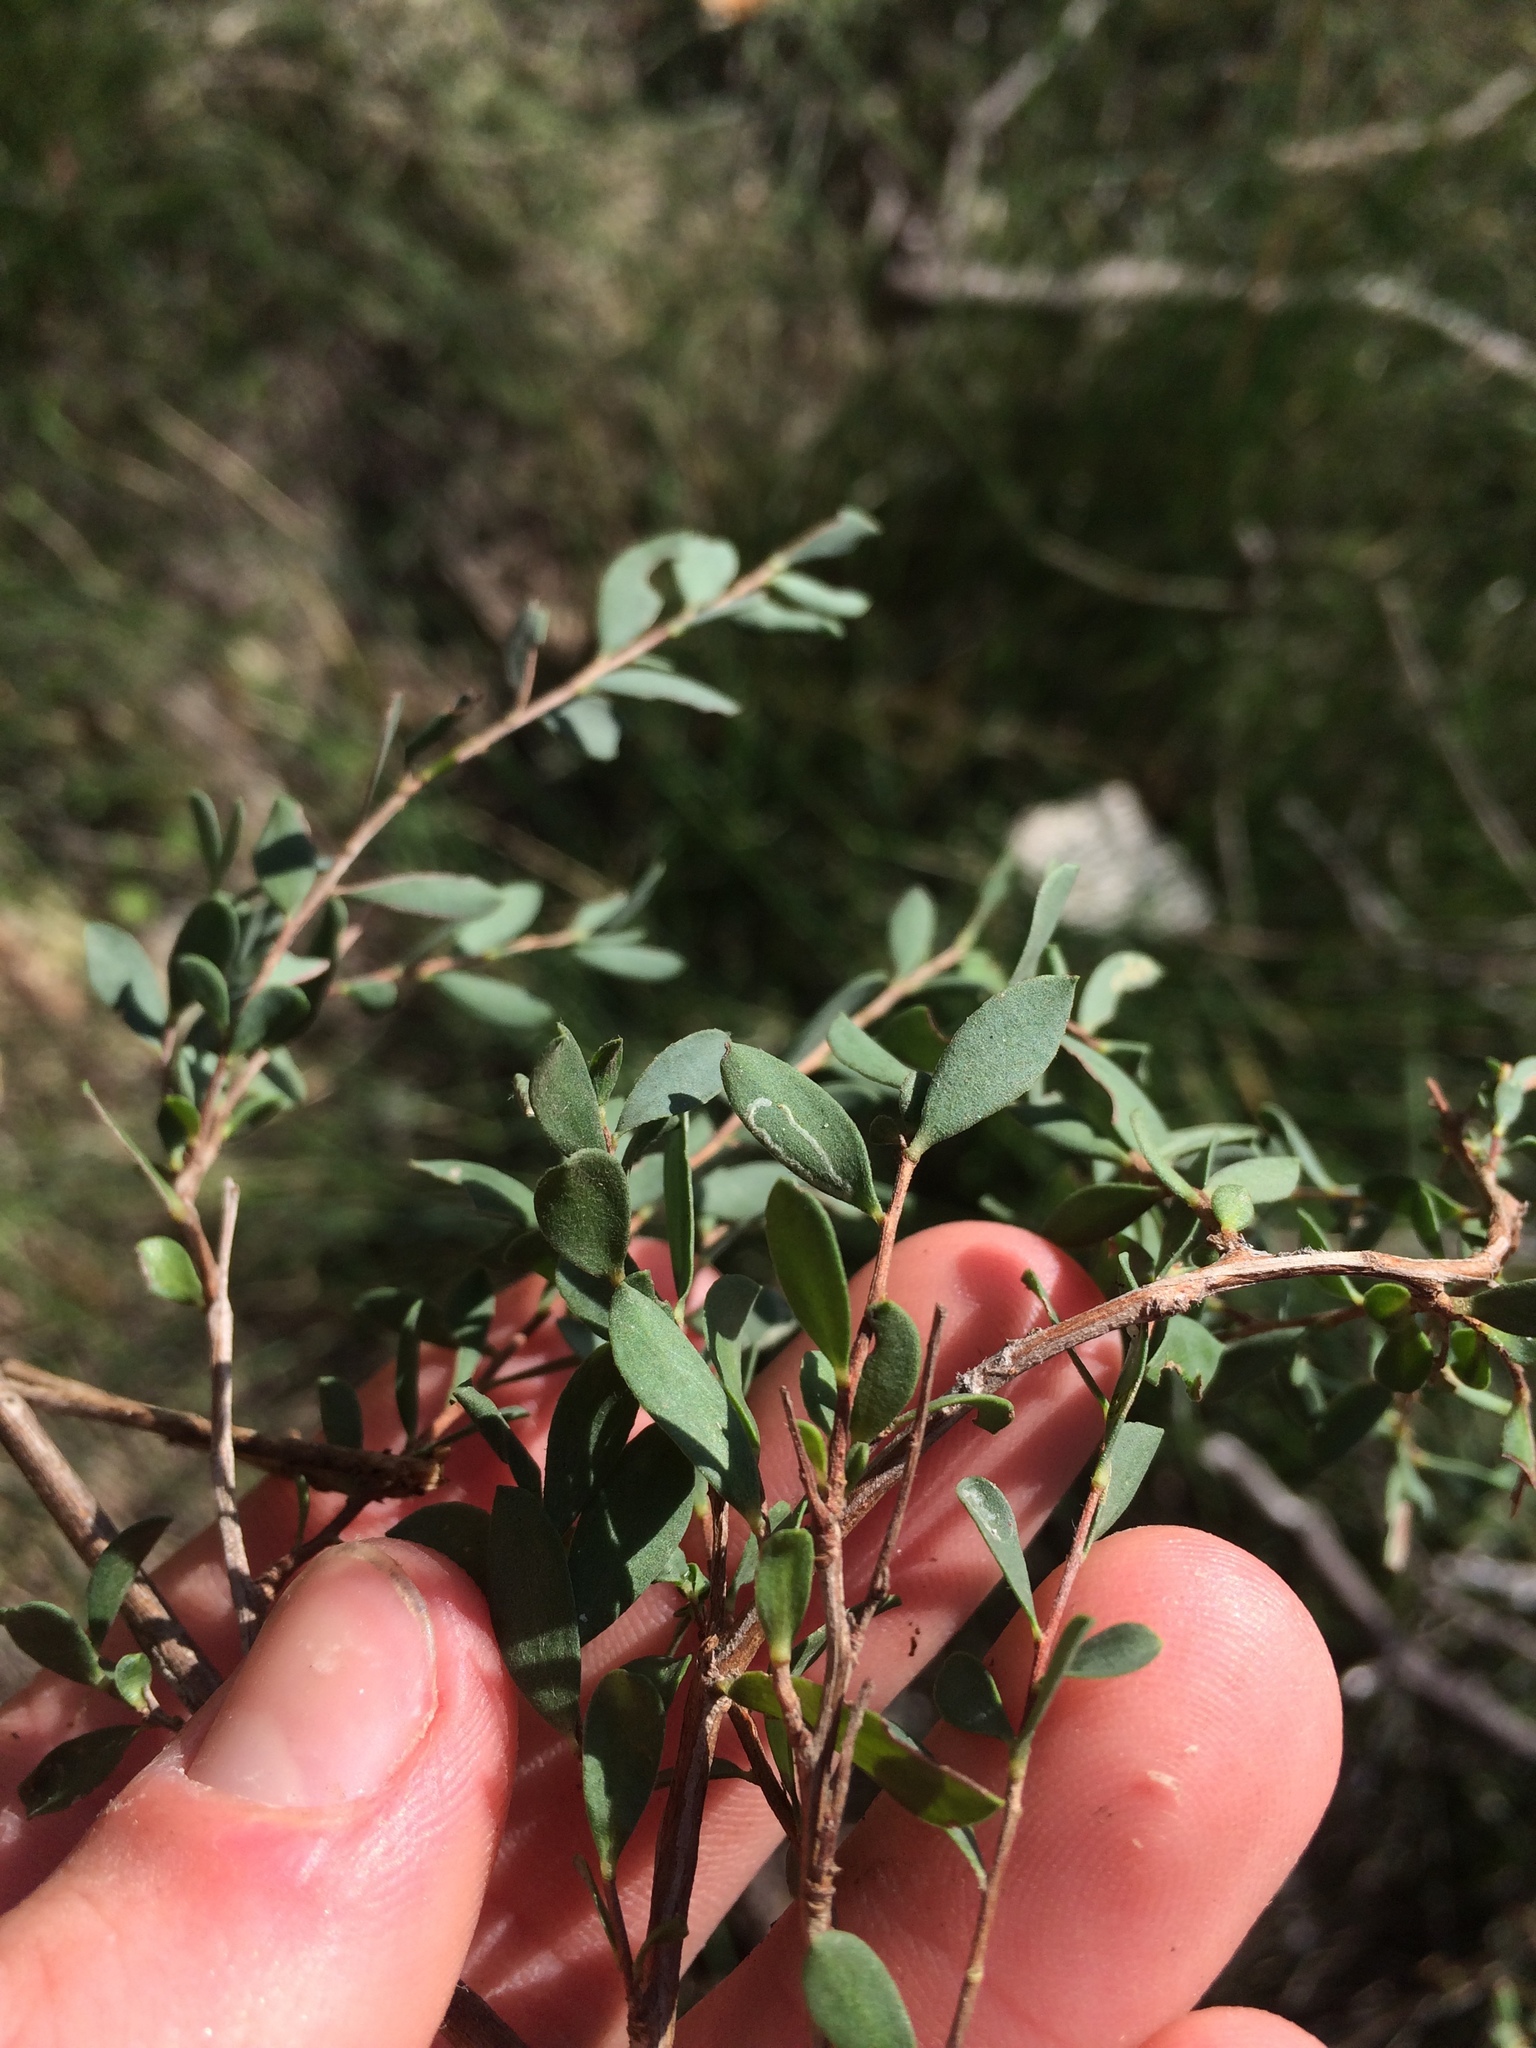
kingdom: Animalia
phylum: Arthropoda
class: Insecta
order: Lepidoptera
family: Gracillariidae
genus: Aristaea
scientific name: Aristaea thalassias
